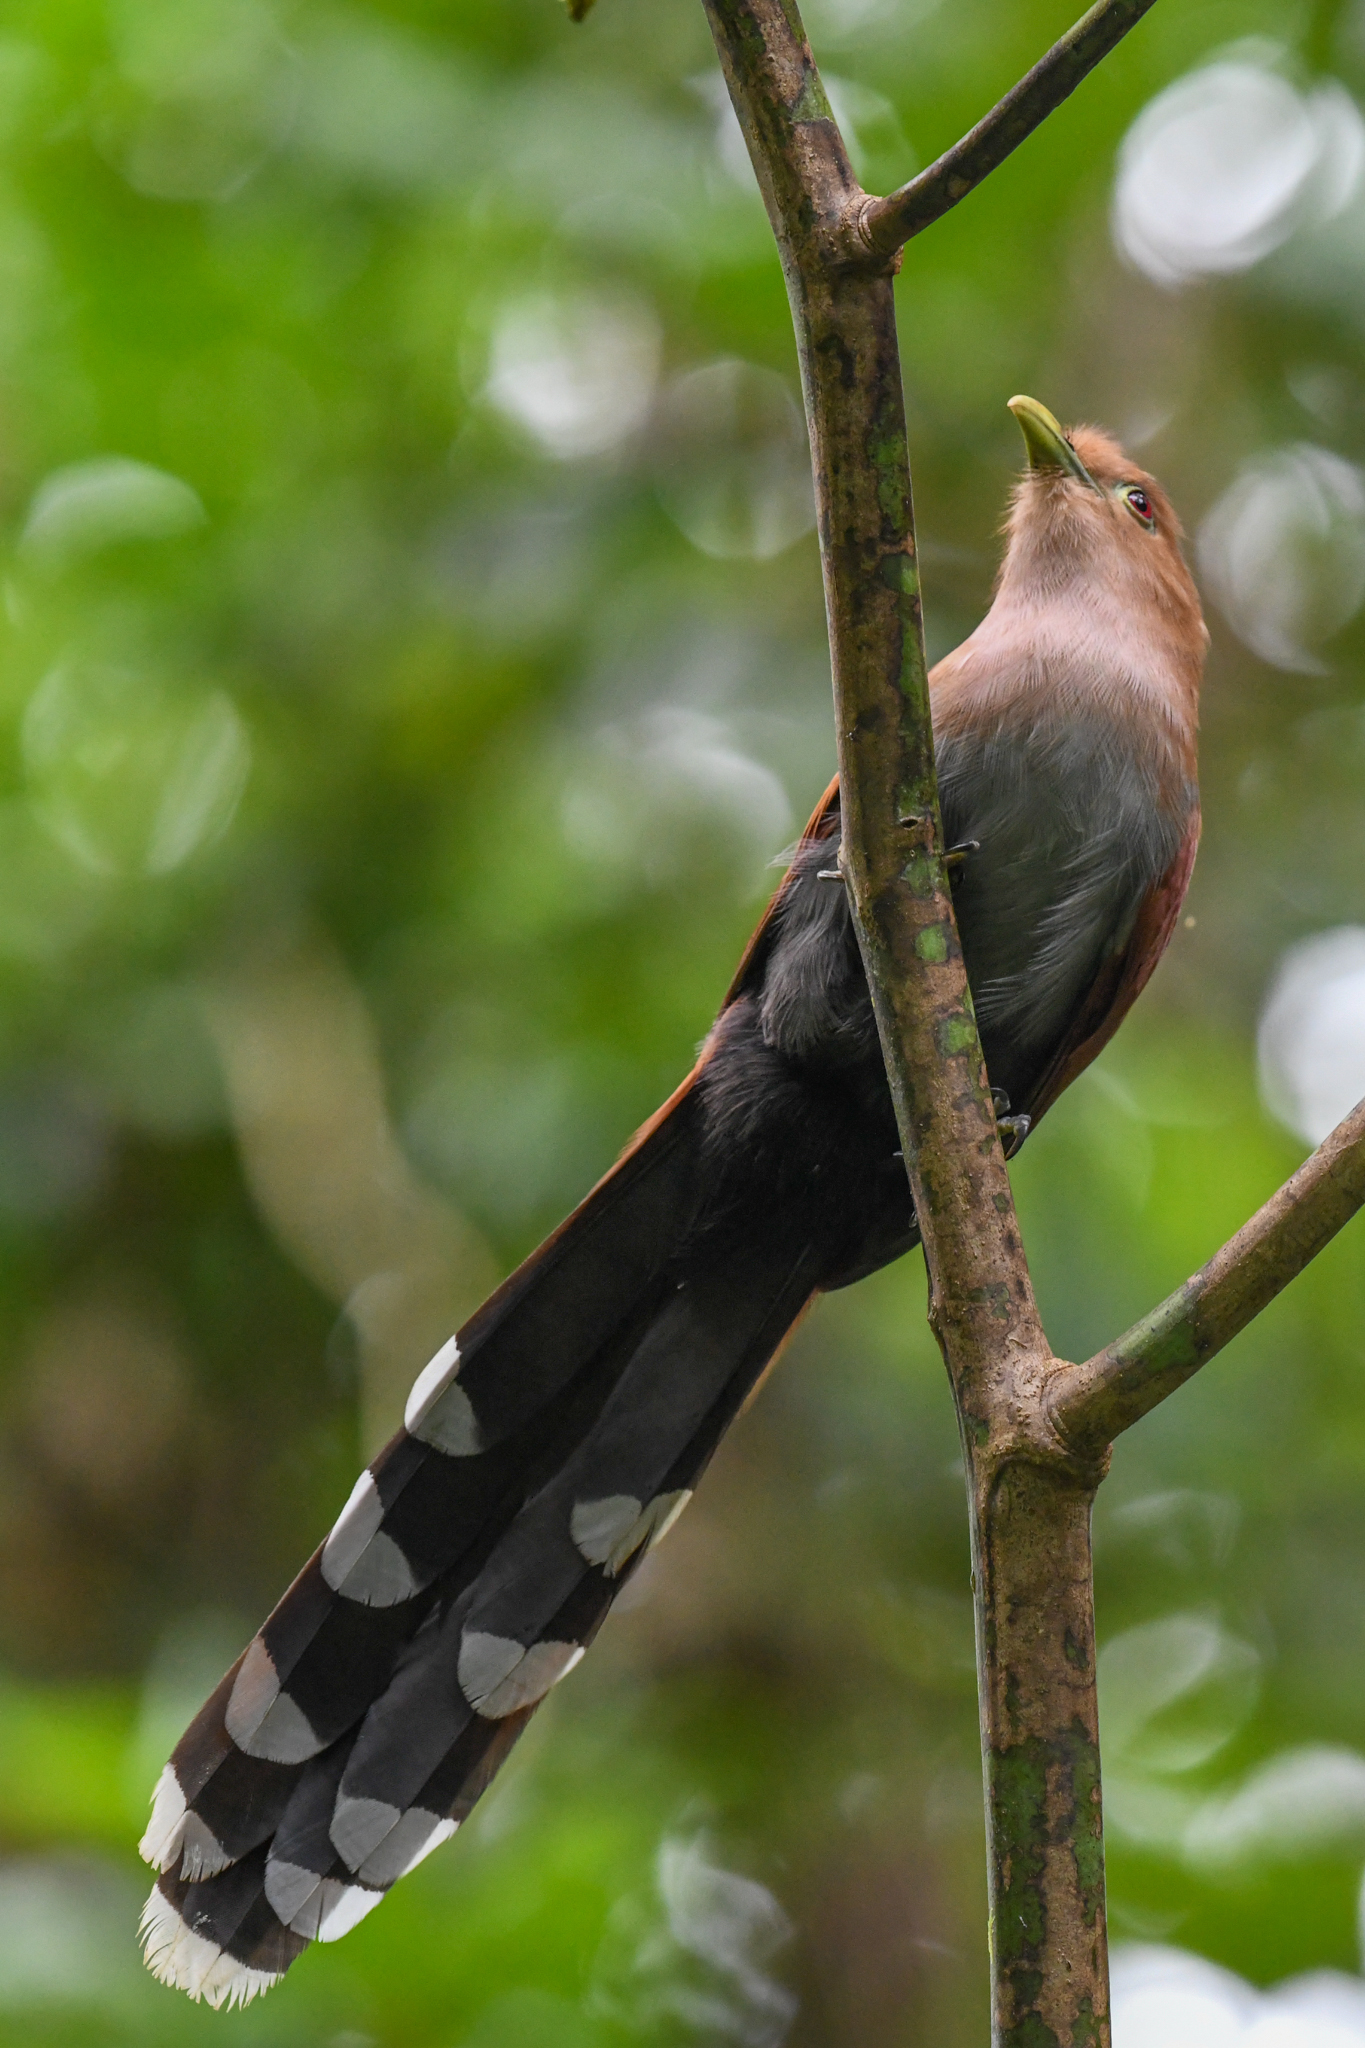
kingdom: Animalia
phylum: Chordata
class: Aves
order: Cuculiformes
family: Cuculidae
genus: Piaya
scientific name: Piaya cayana
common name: Squirrel cuckoo
